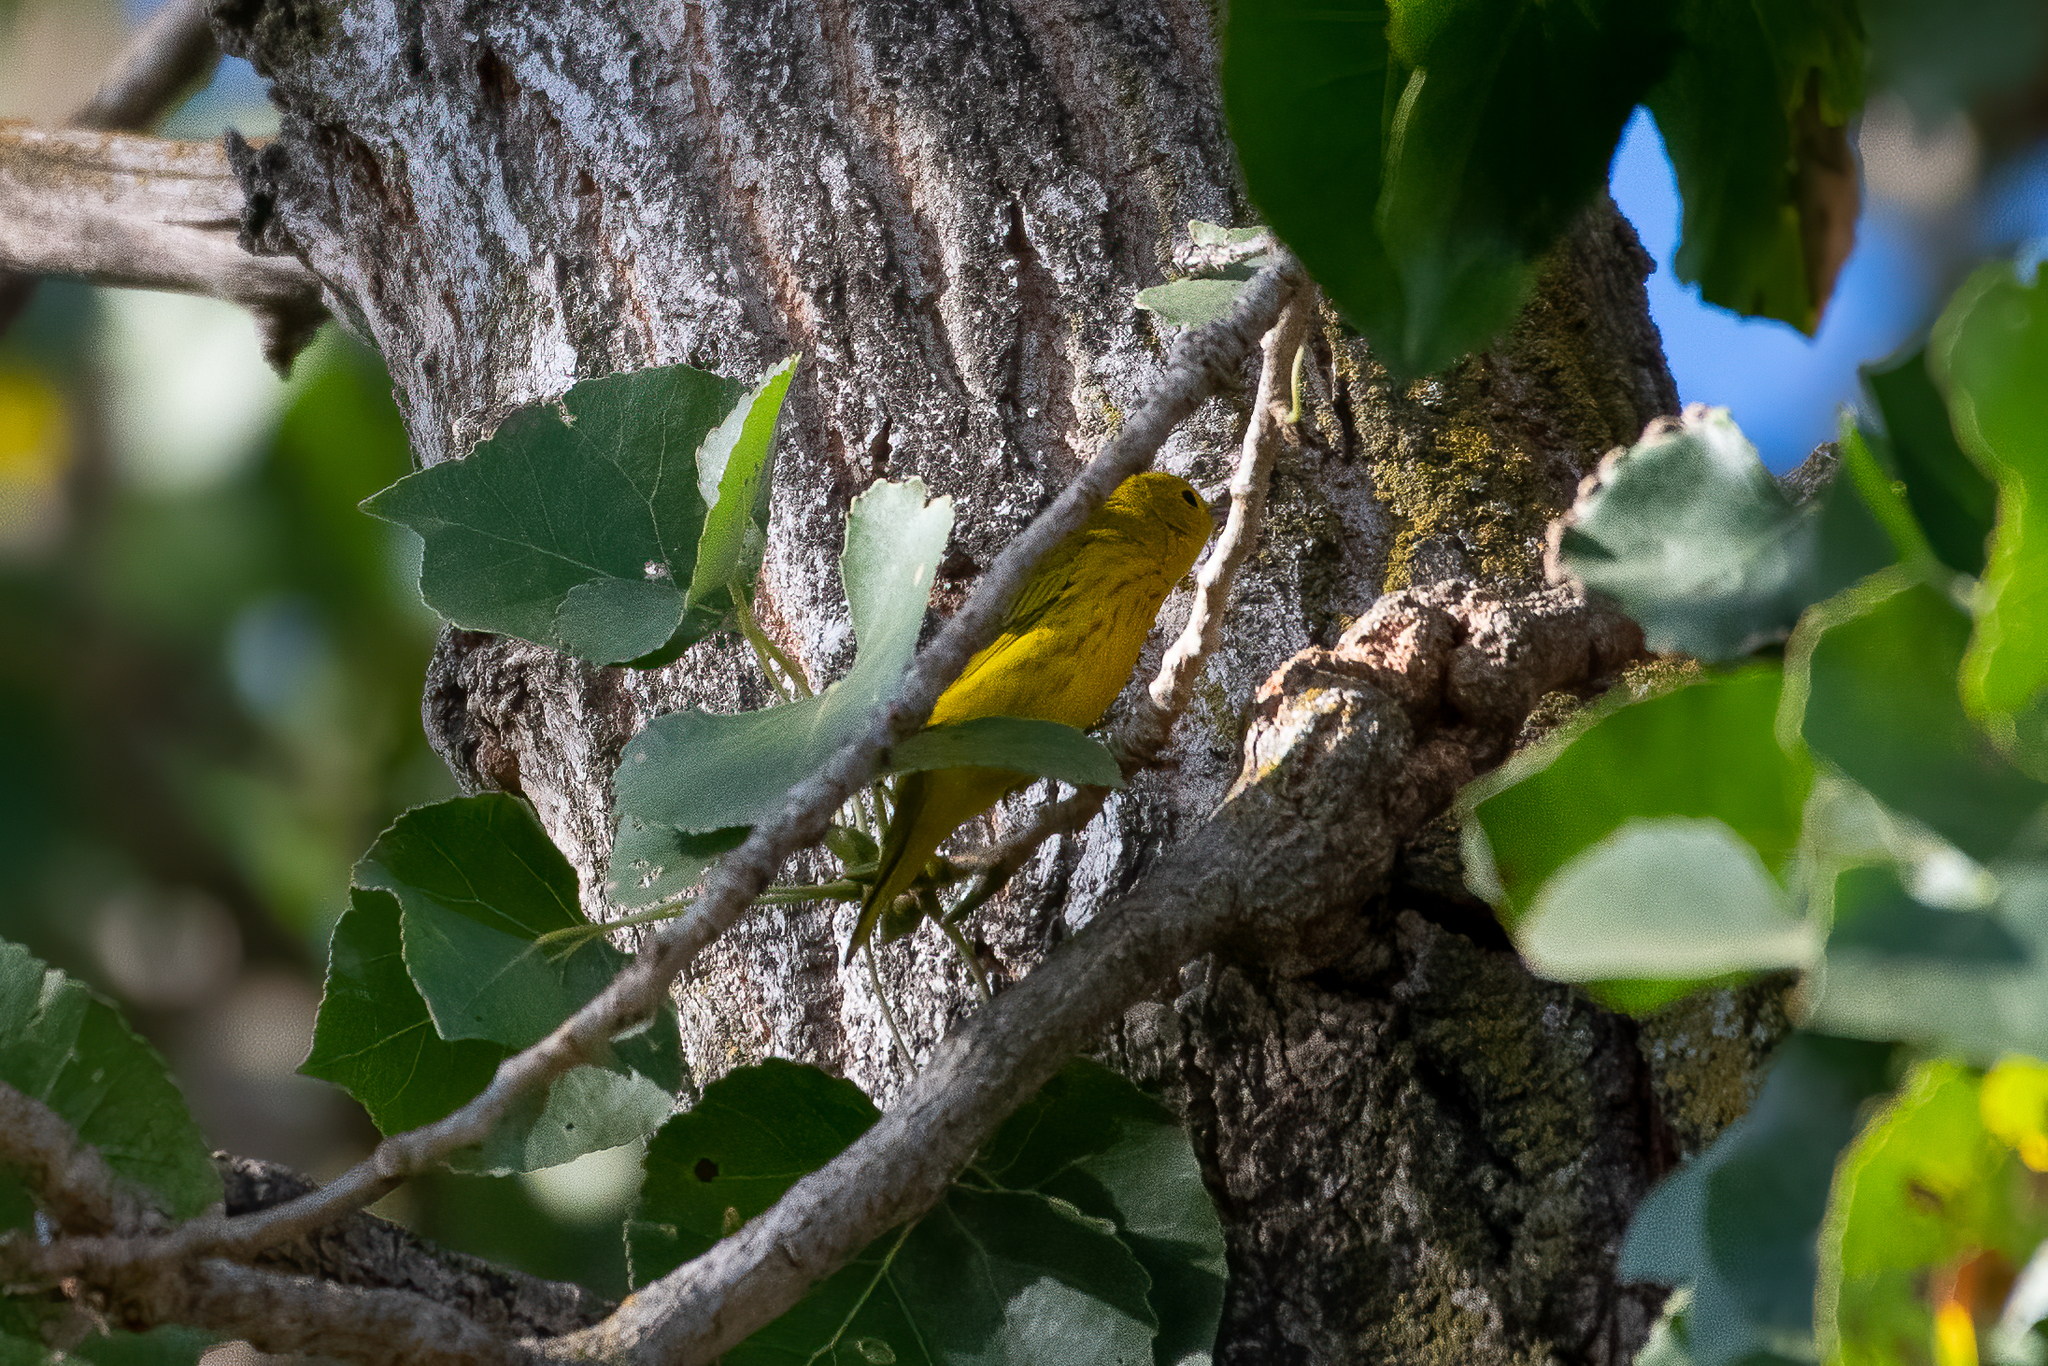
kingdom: Animalia
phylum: Chordata
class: Aves
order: Passeriformes
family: Parulidae
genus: Setophaga
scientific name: Setophaga petechia
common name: Yellow warbler
